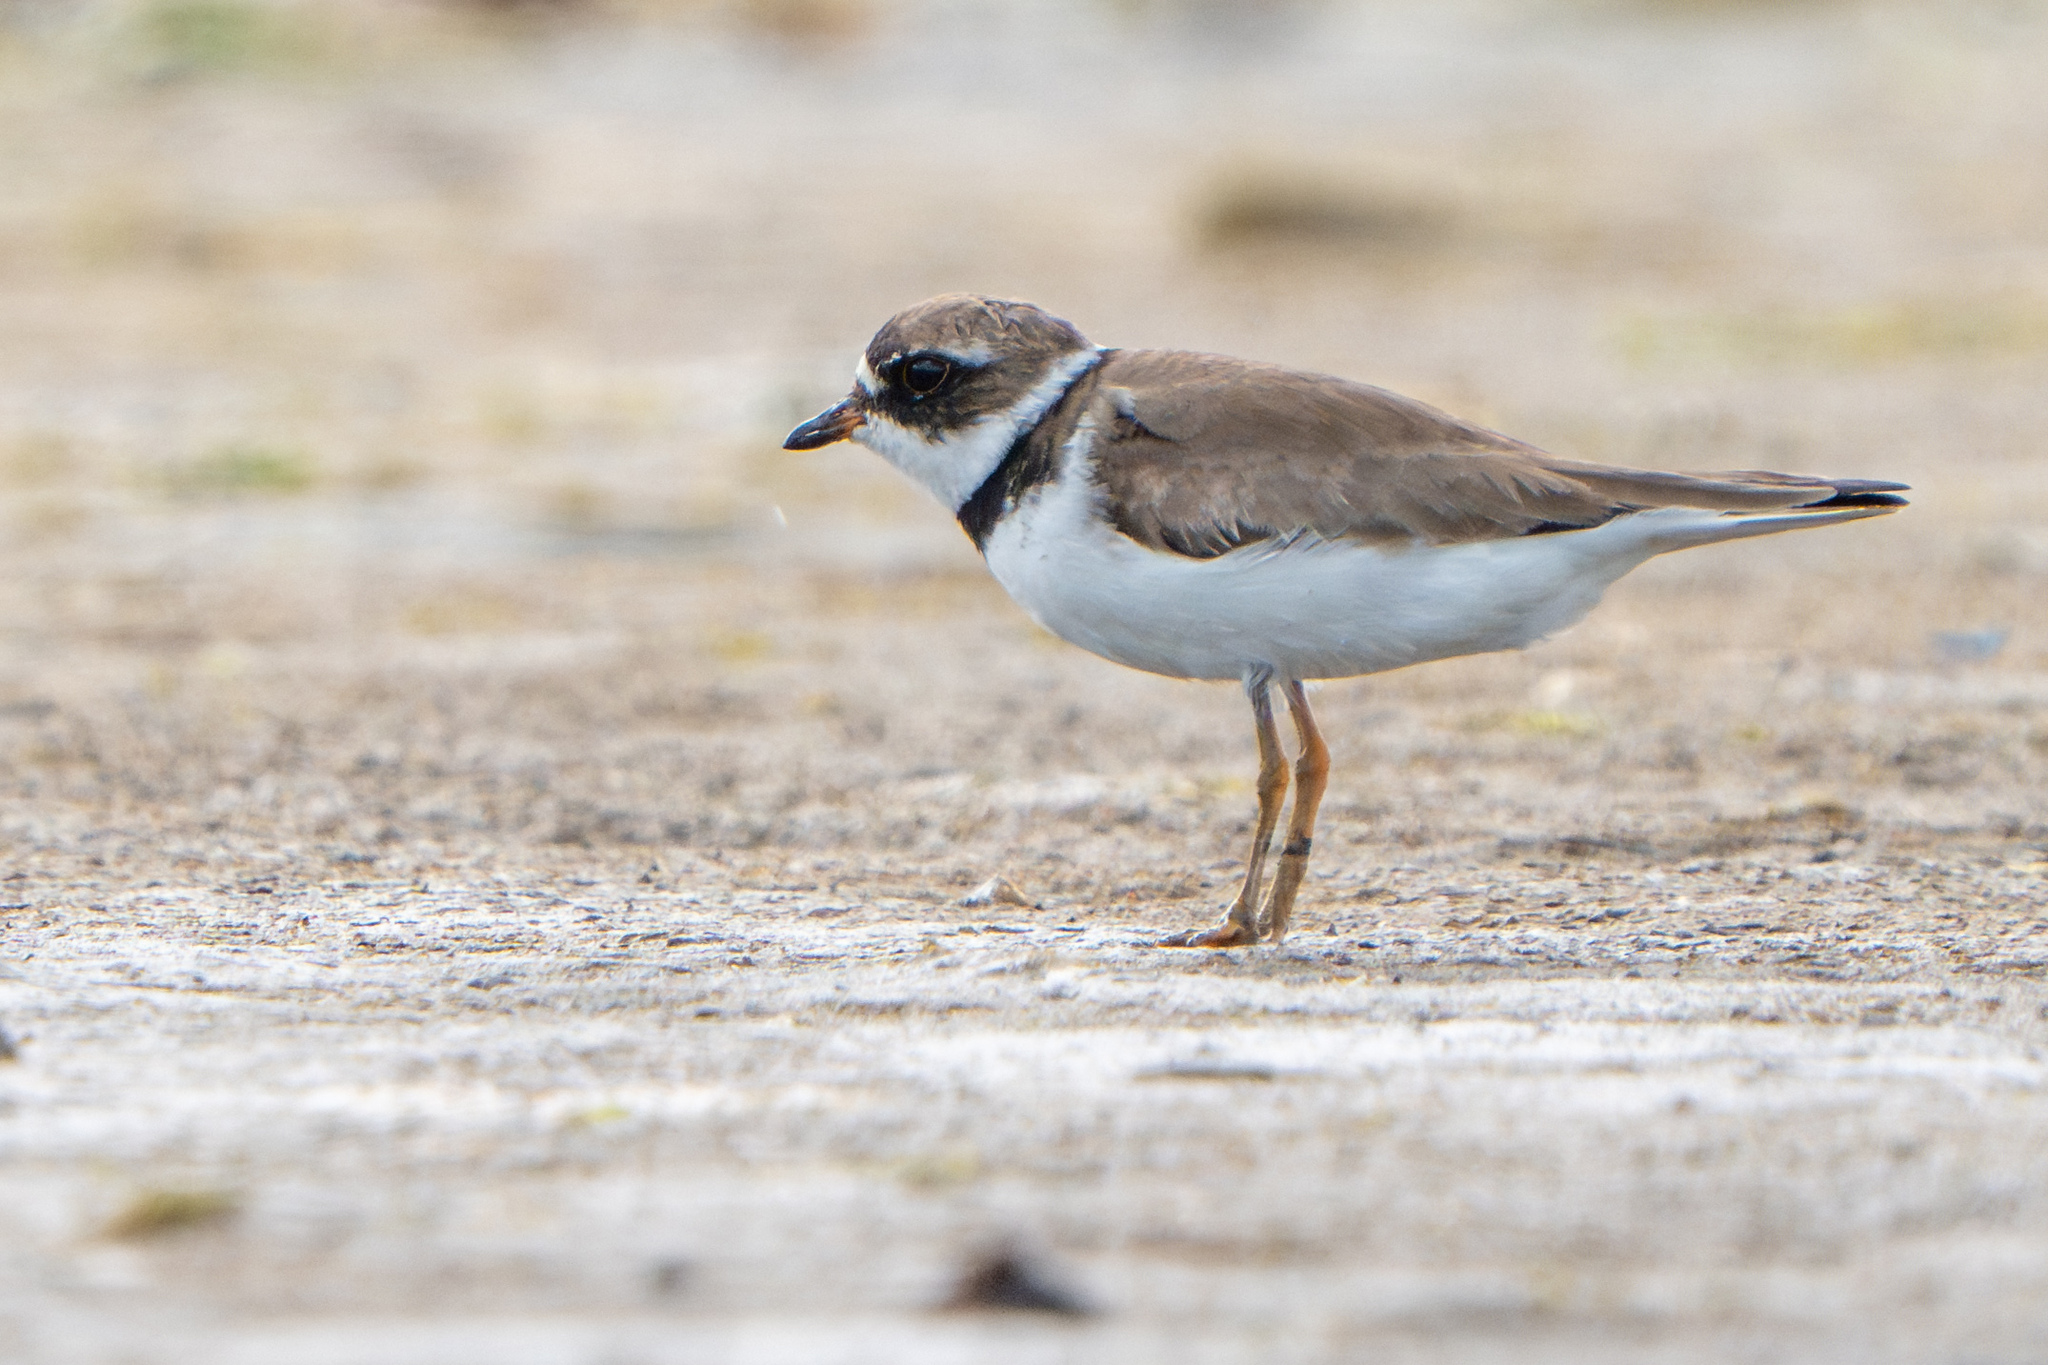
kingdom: Animalia
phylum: Chordata
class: Aves
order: Charadriiformes
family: Charadriidae
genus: Charadrius
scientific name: Charadrius semipalmatus
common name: Semipalmated plover
